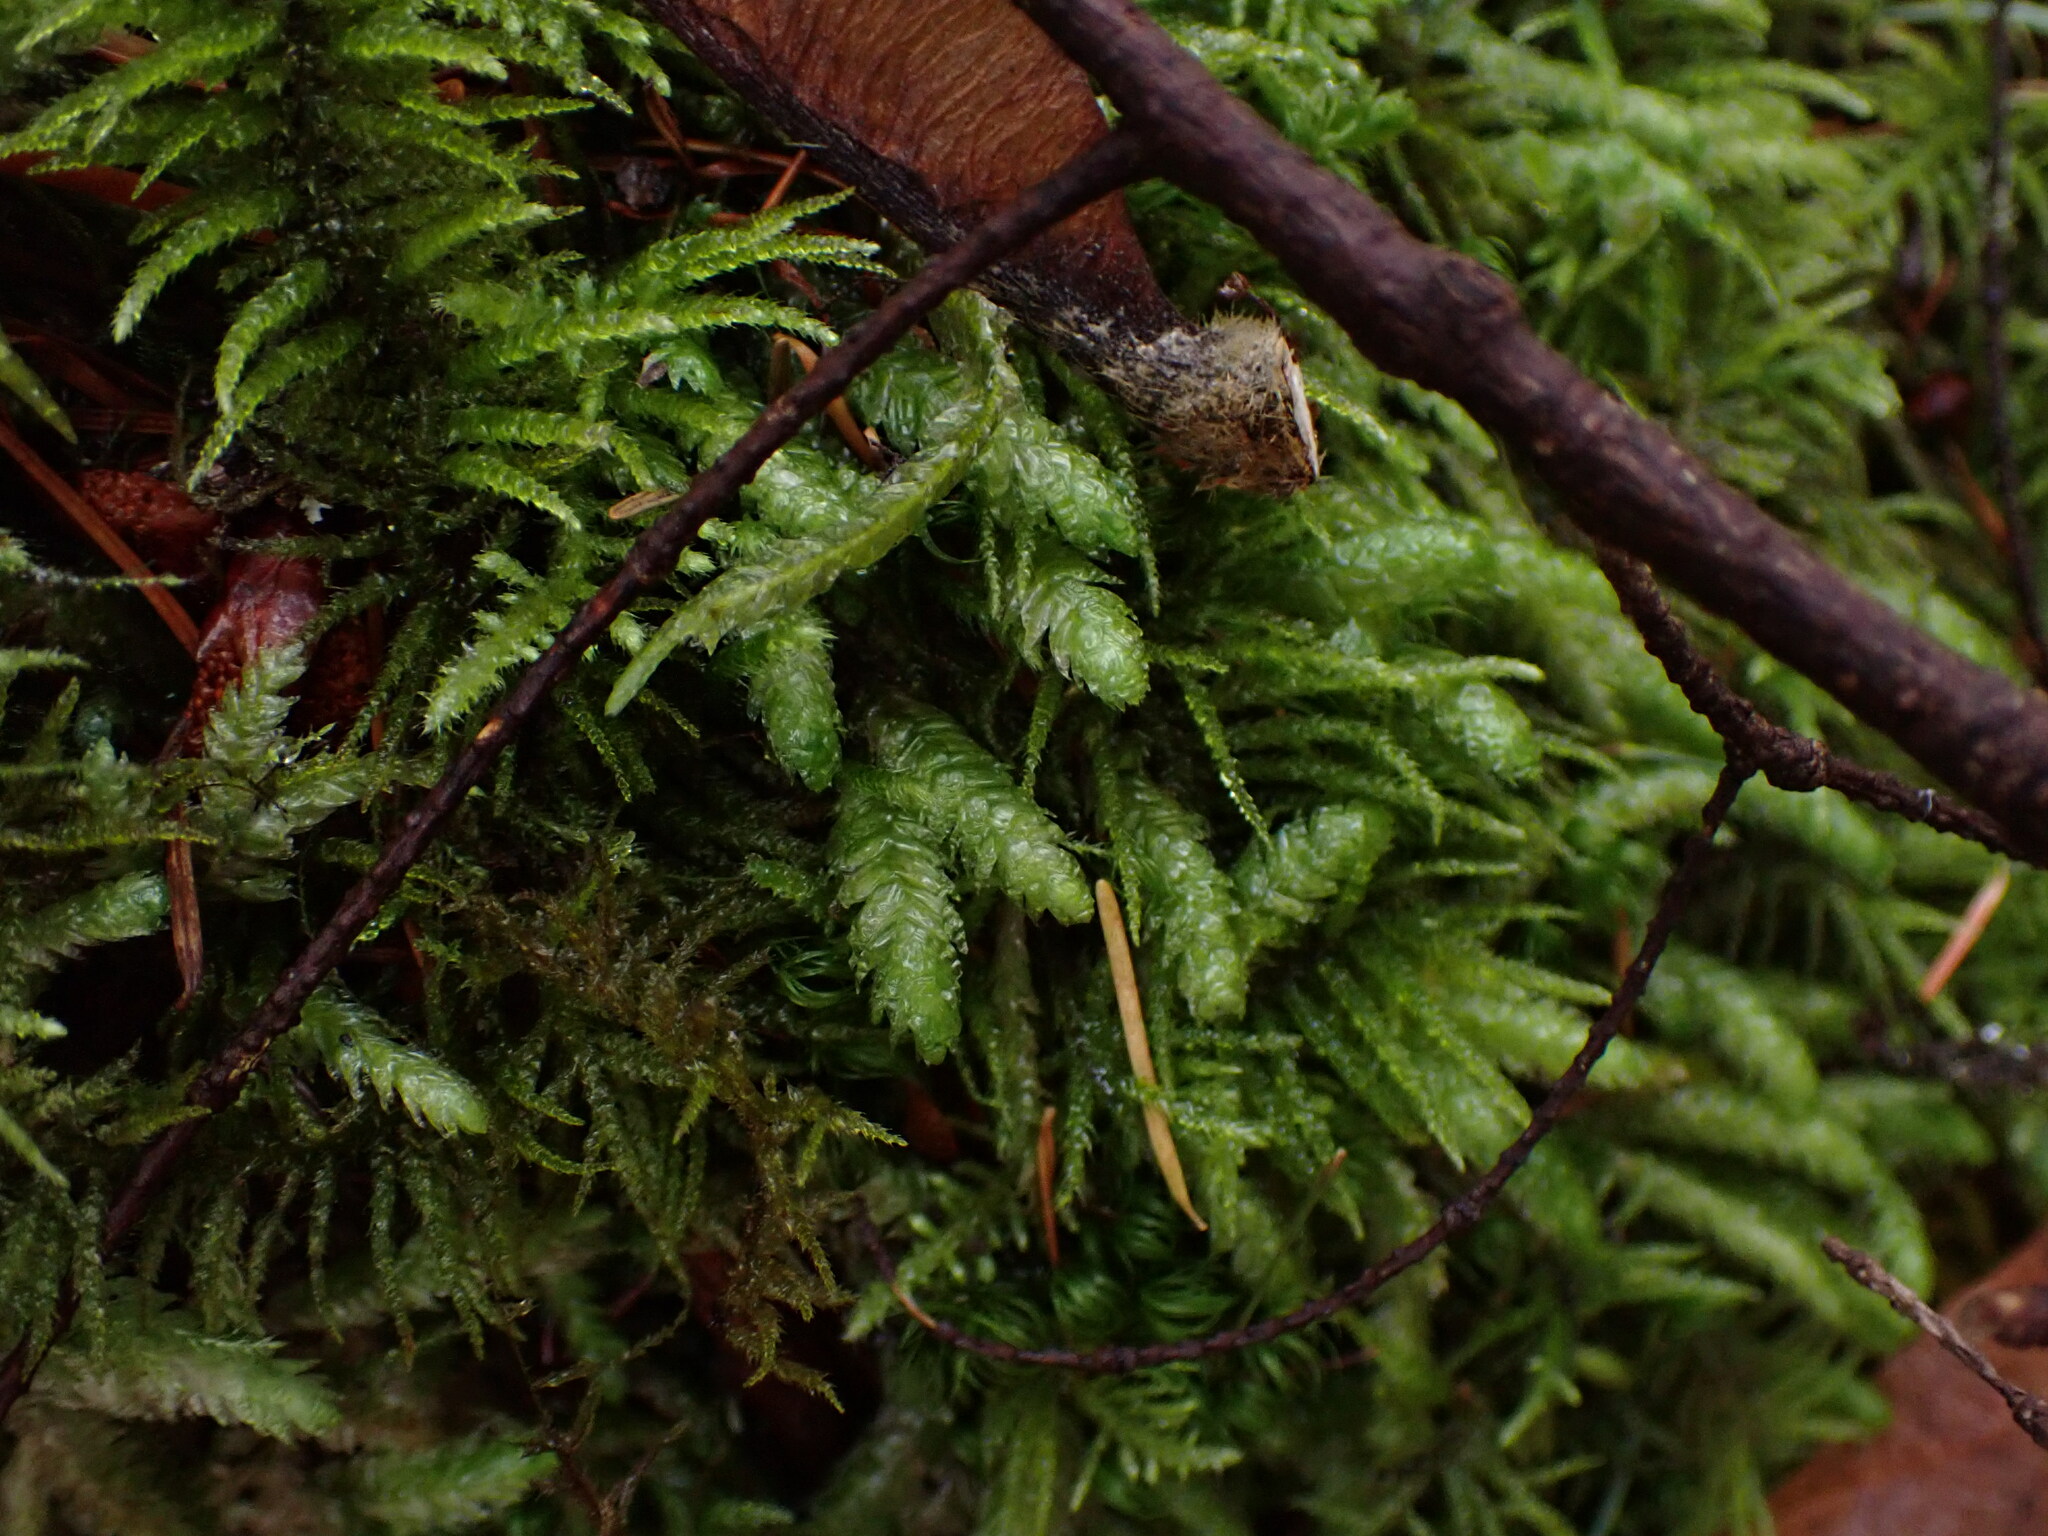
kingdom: Plantae
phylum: Bryophyta
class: Bryopsida
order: Hypnales
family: Plagiotheciaceae
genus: Plagiothecium
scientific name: Plagiothecium undulatum
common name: Waved silk-moss
